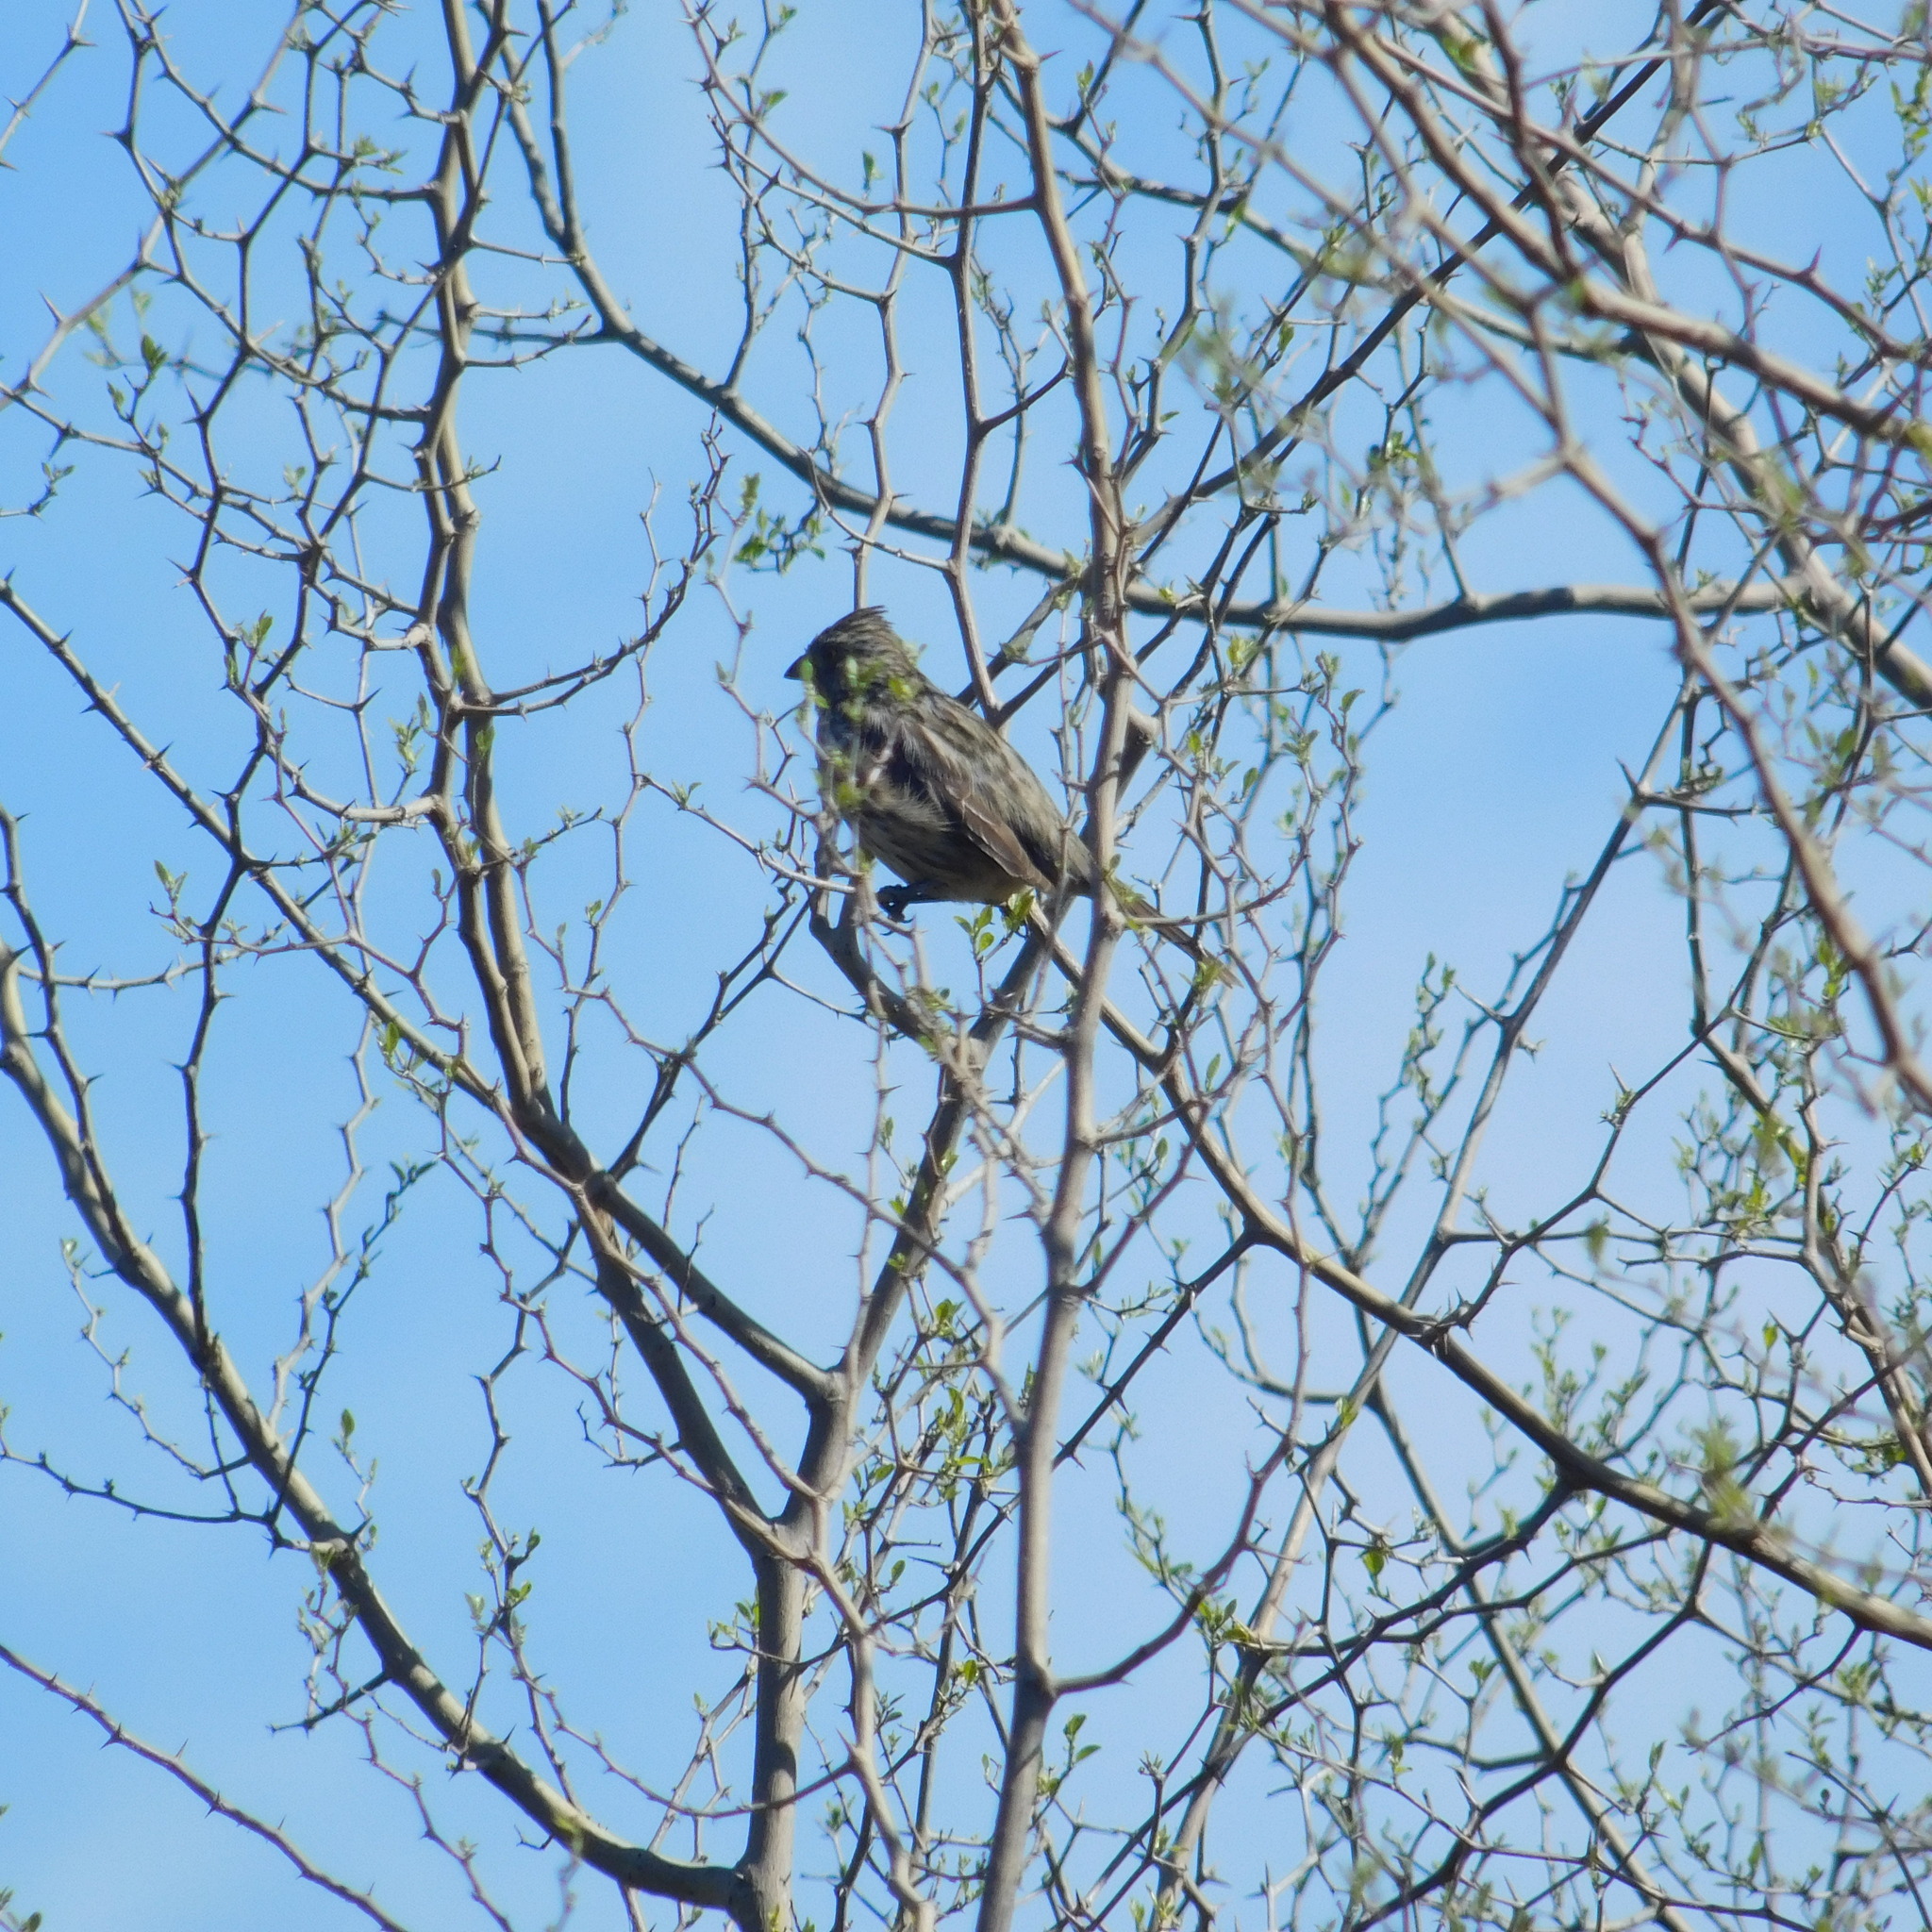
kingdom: Animalia
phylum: Chordata
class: Aves
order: Passeriformes
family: Cotingidae
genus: Phytotoma
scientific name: Phytotoma rutila
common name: White-tipped plantcutter
